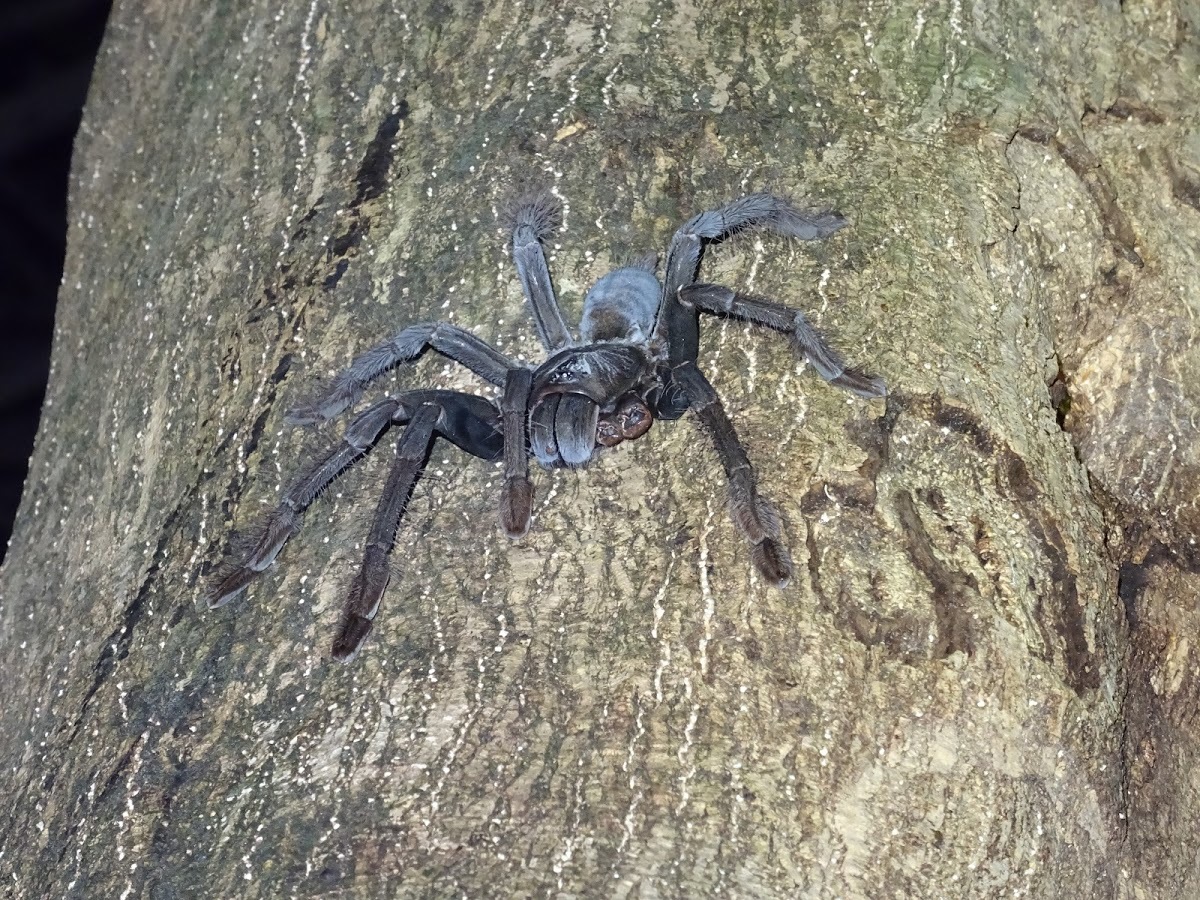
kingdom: Animalia
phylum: Arthropoda
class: Arachnida
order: Araneae
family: Theraphosidae
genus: Lampropelma
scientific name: Lampropelma carpenteri
